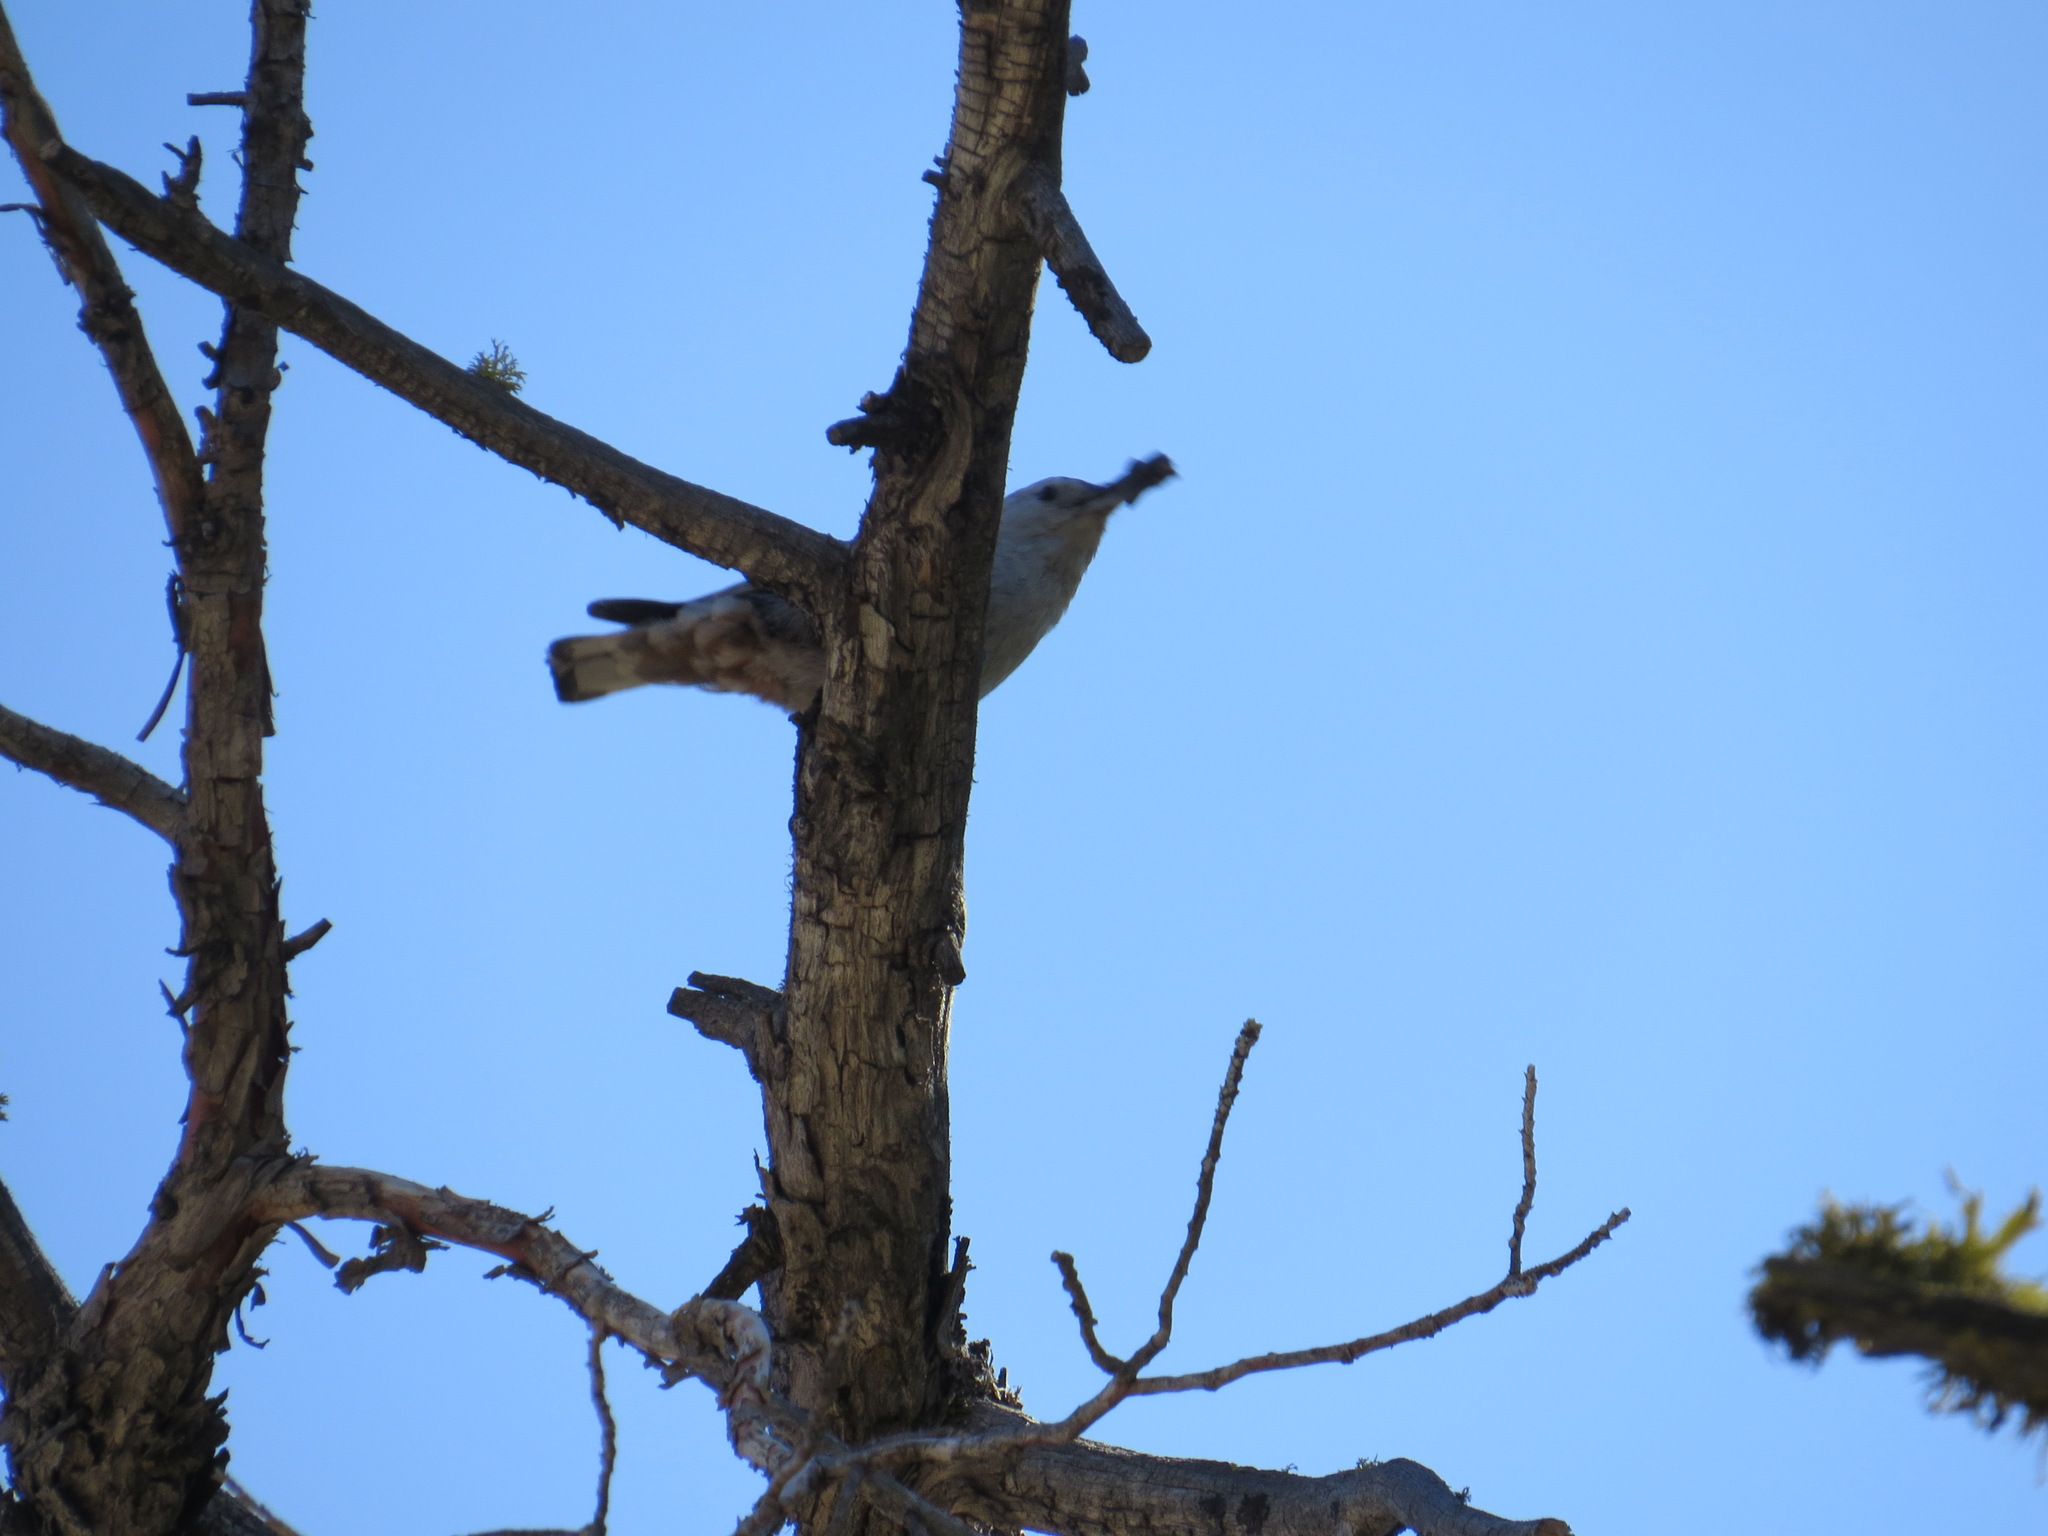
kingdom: Animalia
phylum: Chordata
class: Aves
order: Passeriformes
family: Sittidae
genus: Sitta
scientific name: Sitta carolinensis
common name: White-breasted nuthatch
